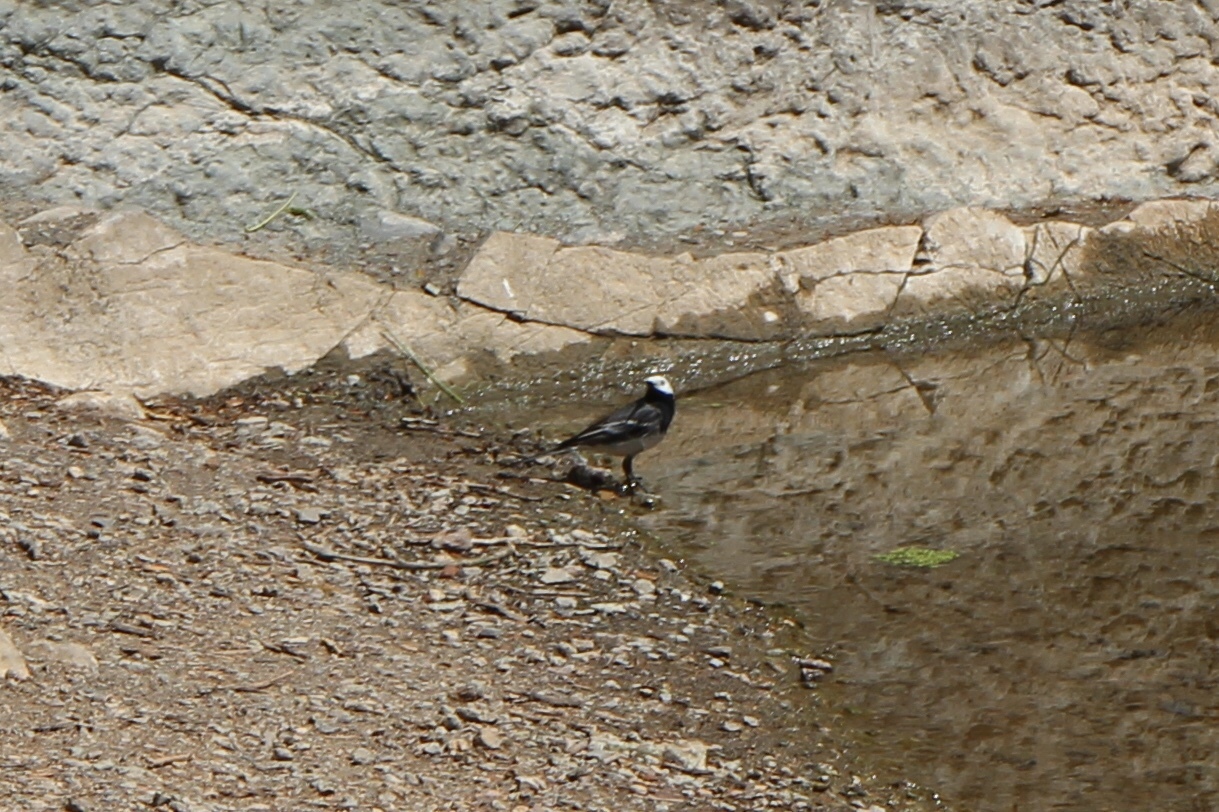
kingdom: Animalia
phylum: Chordata
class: Aves
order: Passeriformes
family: Motacillidae
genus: Motacilla
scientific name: Motacilla alba
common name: White wagtail
